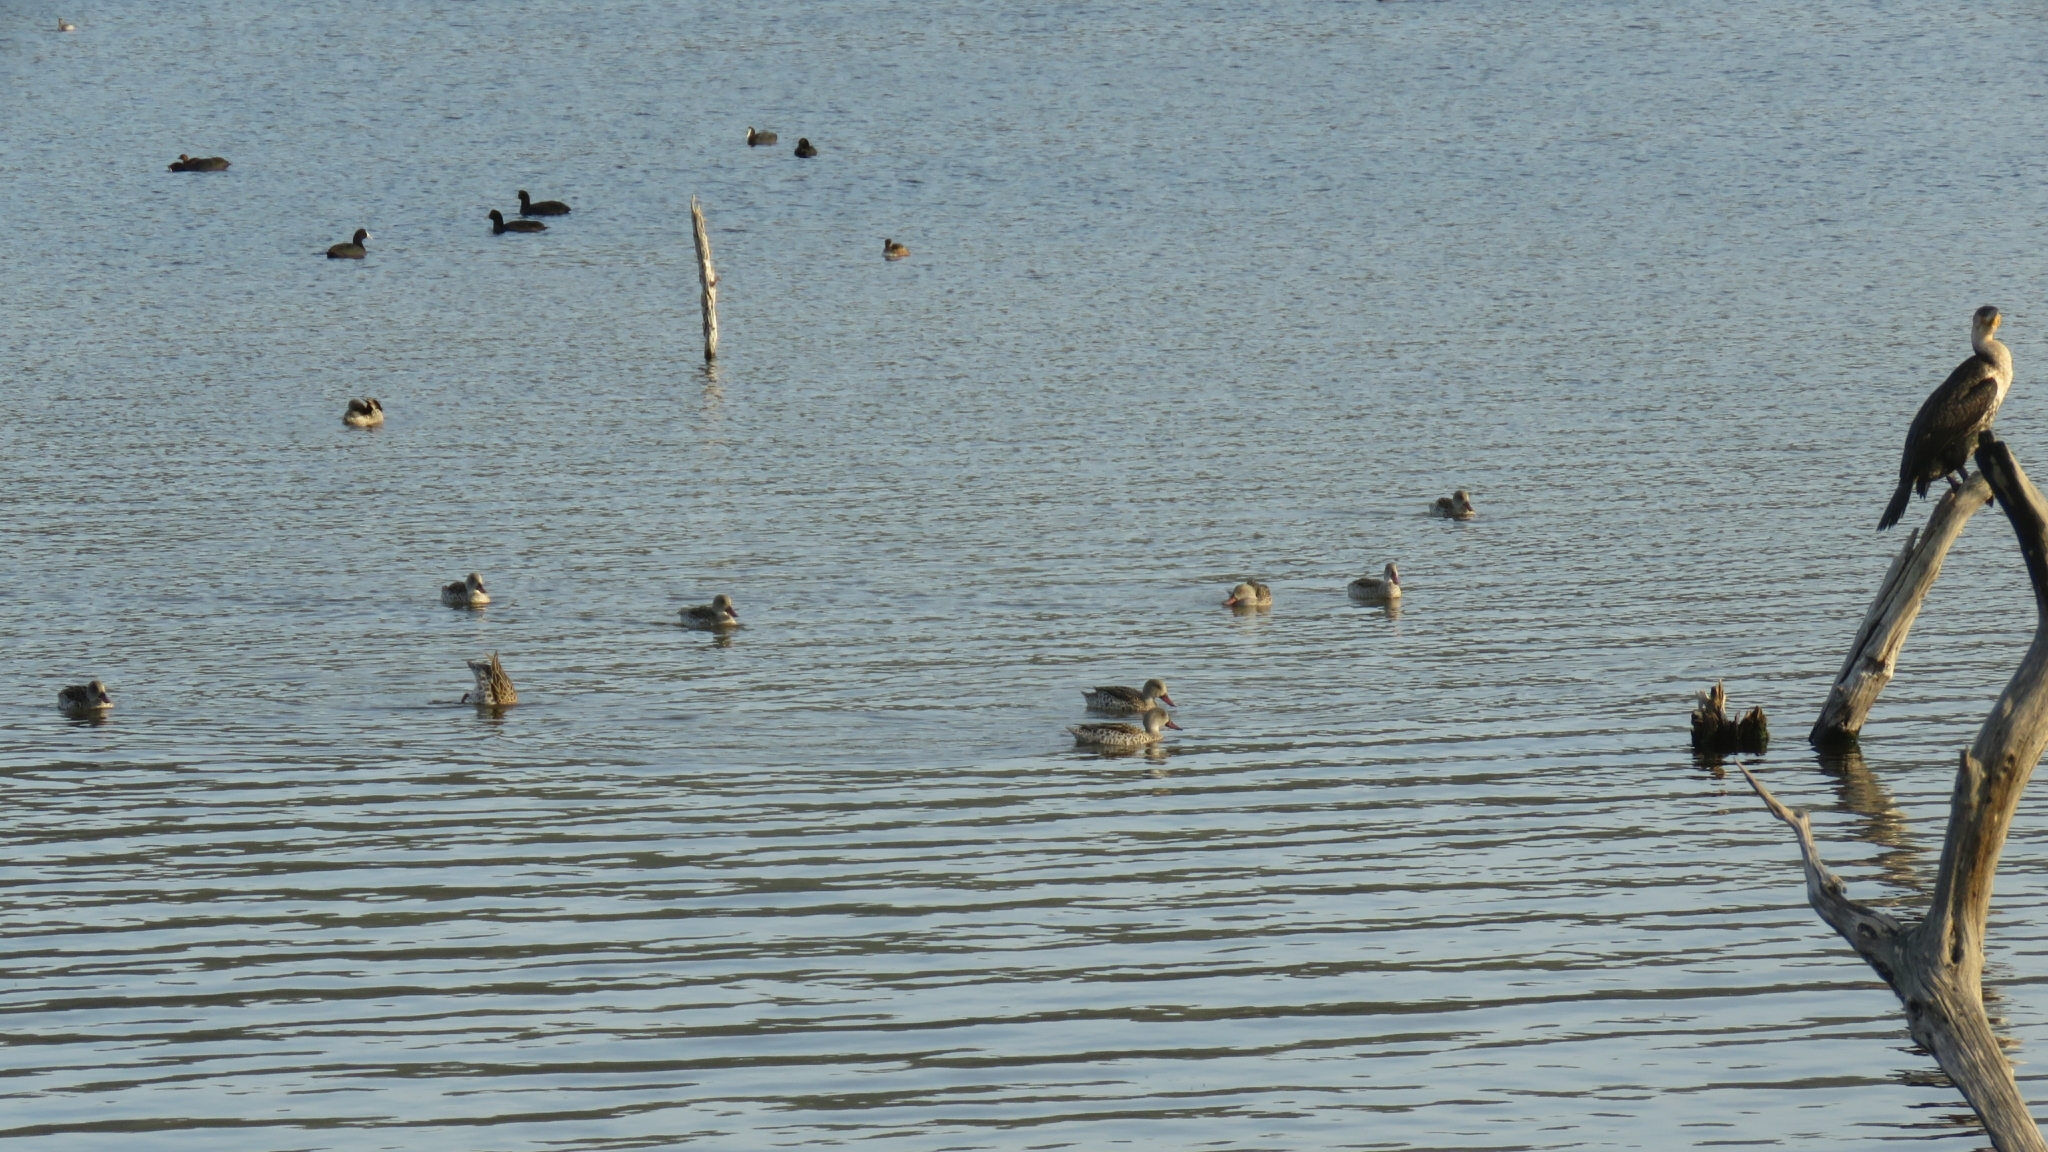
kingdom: Animalia
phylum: Chordata
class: Aves
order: Anseriformes
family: Anatidae
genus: Anas
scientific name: Anas capensis
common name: Cape teal
